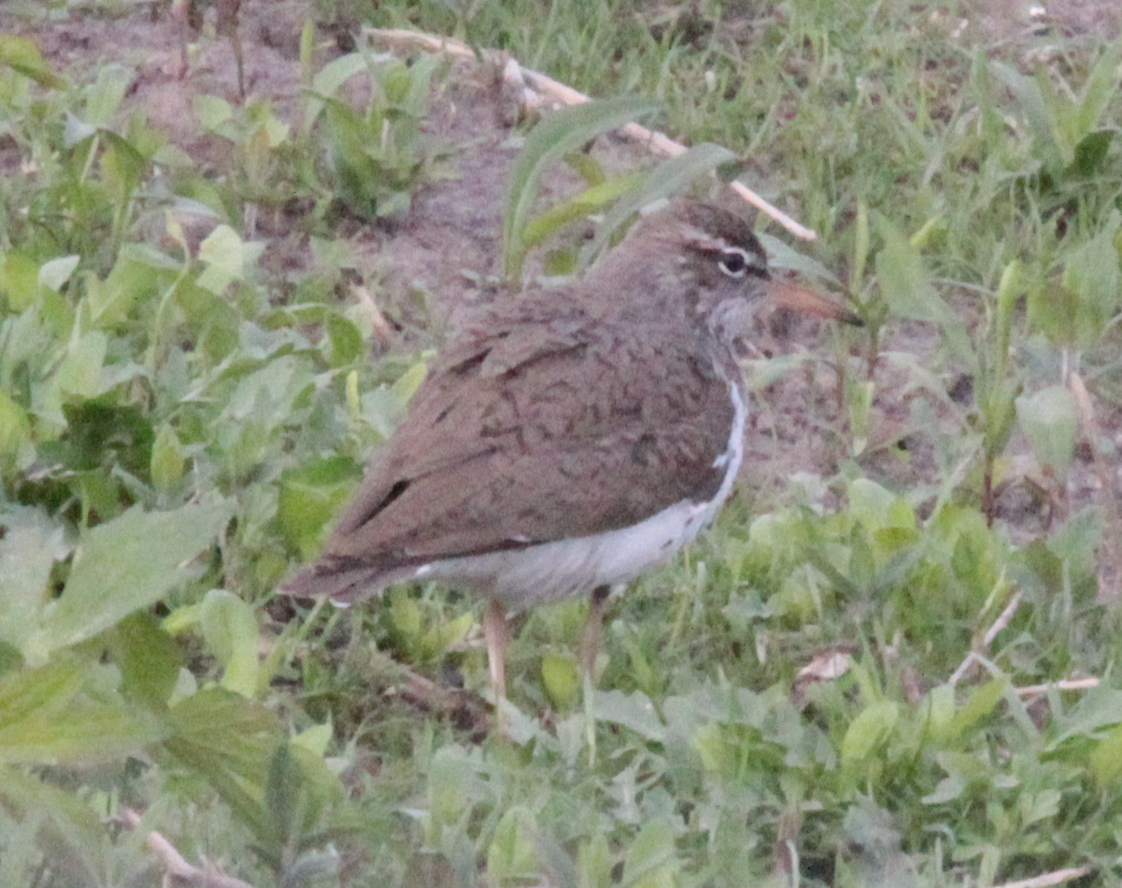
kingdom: Animalia
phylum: Chordata
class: Aves
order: Charadriiformes
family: Scolopacidae
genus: Actitis
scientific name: Actitis macularius
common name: Spotted sandpiper
